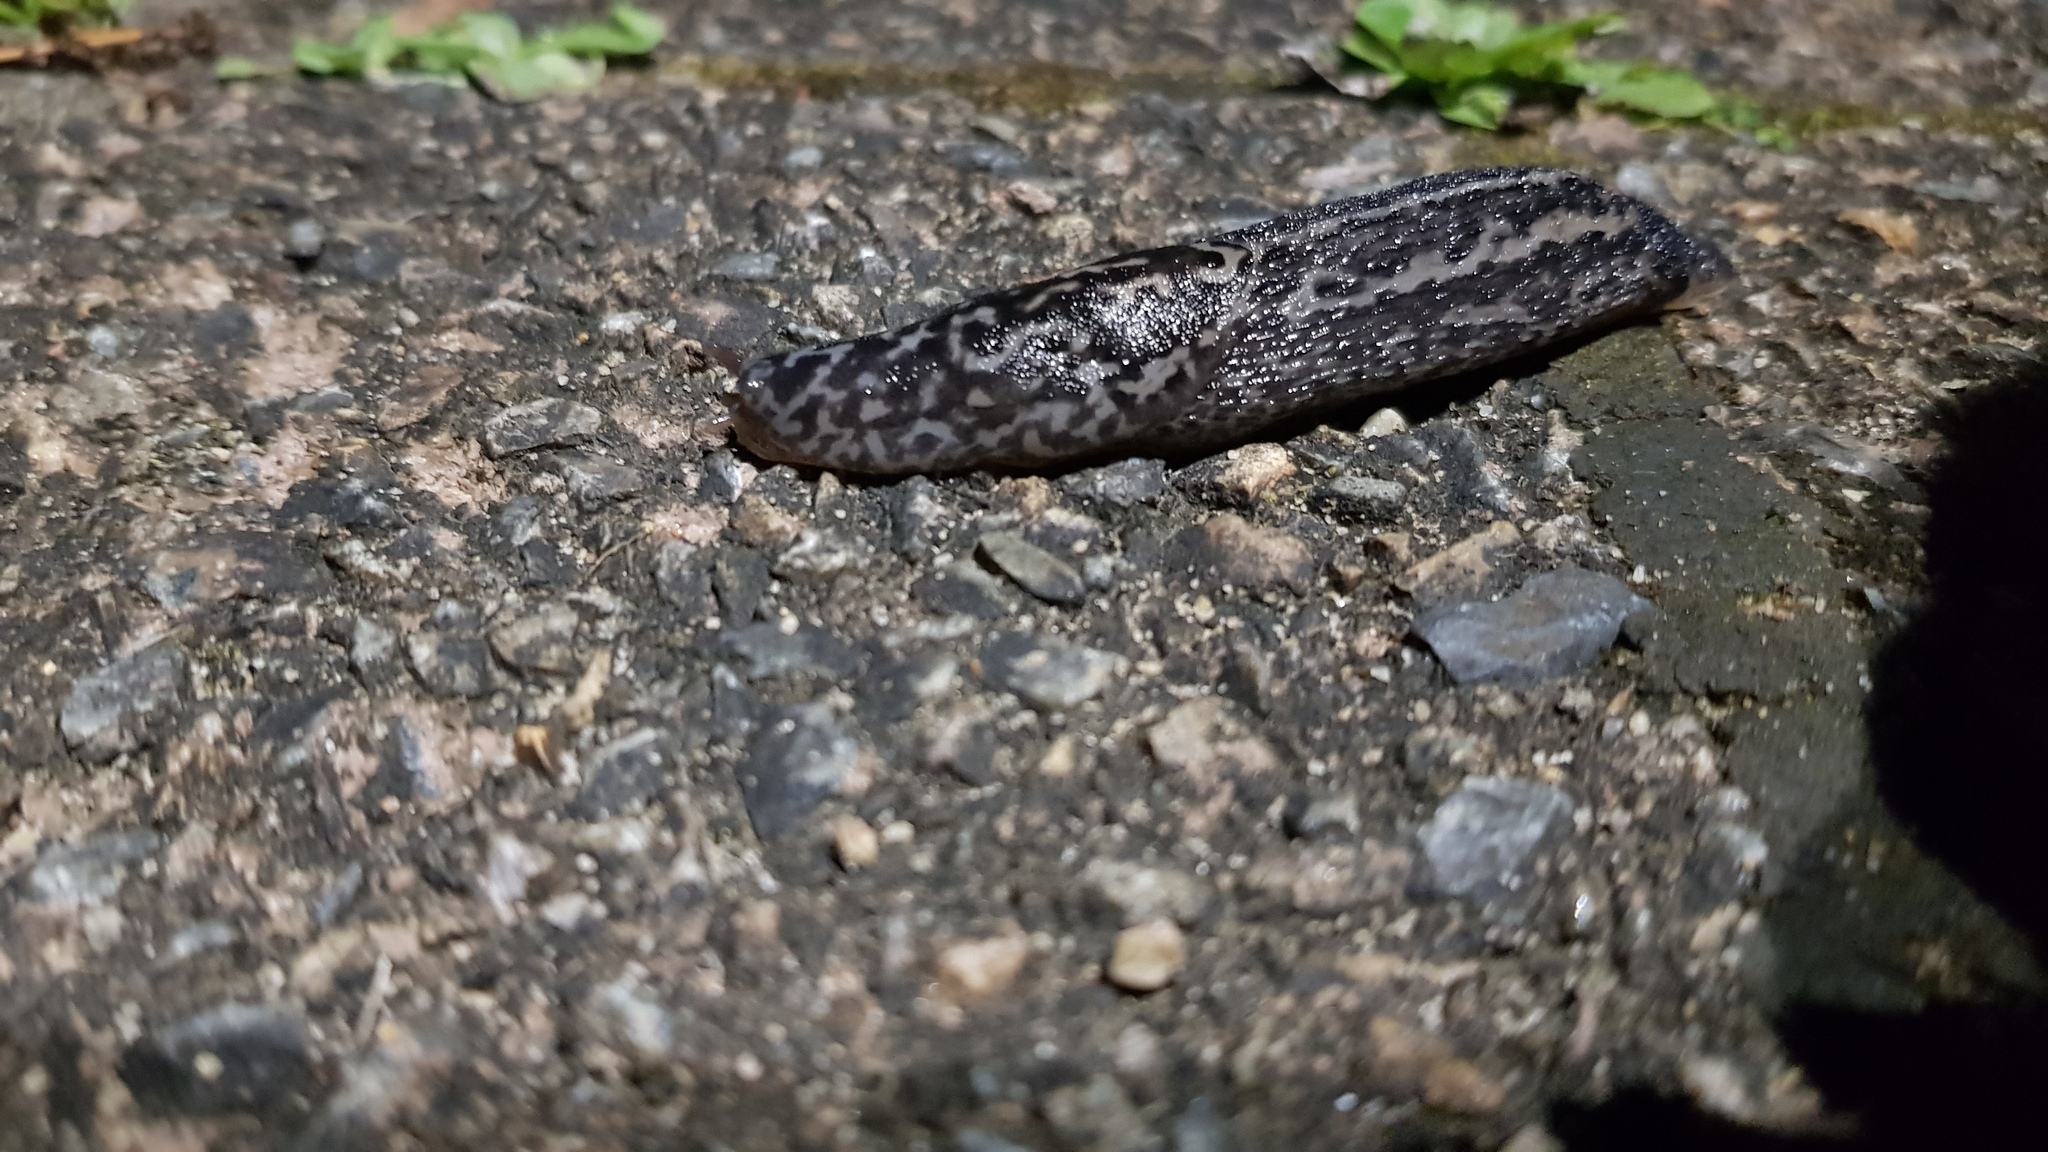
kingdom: Animalia
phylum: Mollusca
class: Gastropoda
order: Stylommatophora
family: Limacidae
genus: Limax
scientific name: Limax maximus
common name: Great grey slug
